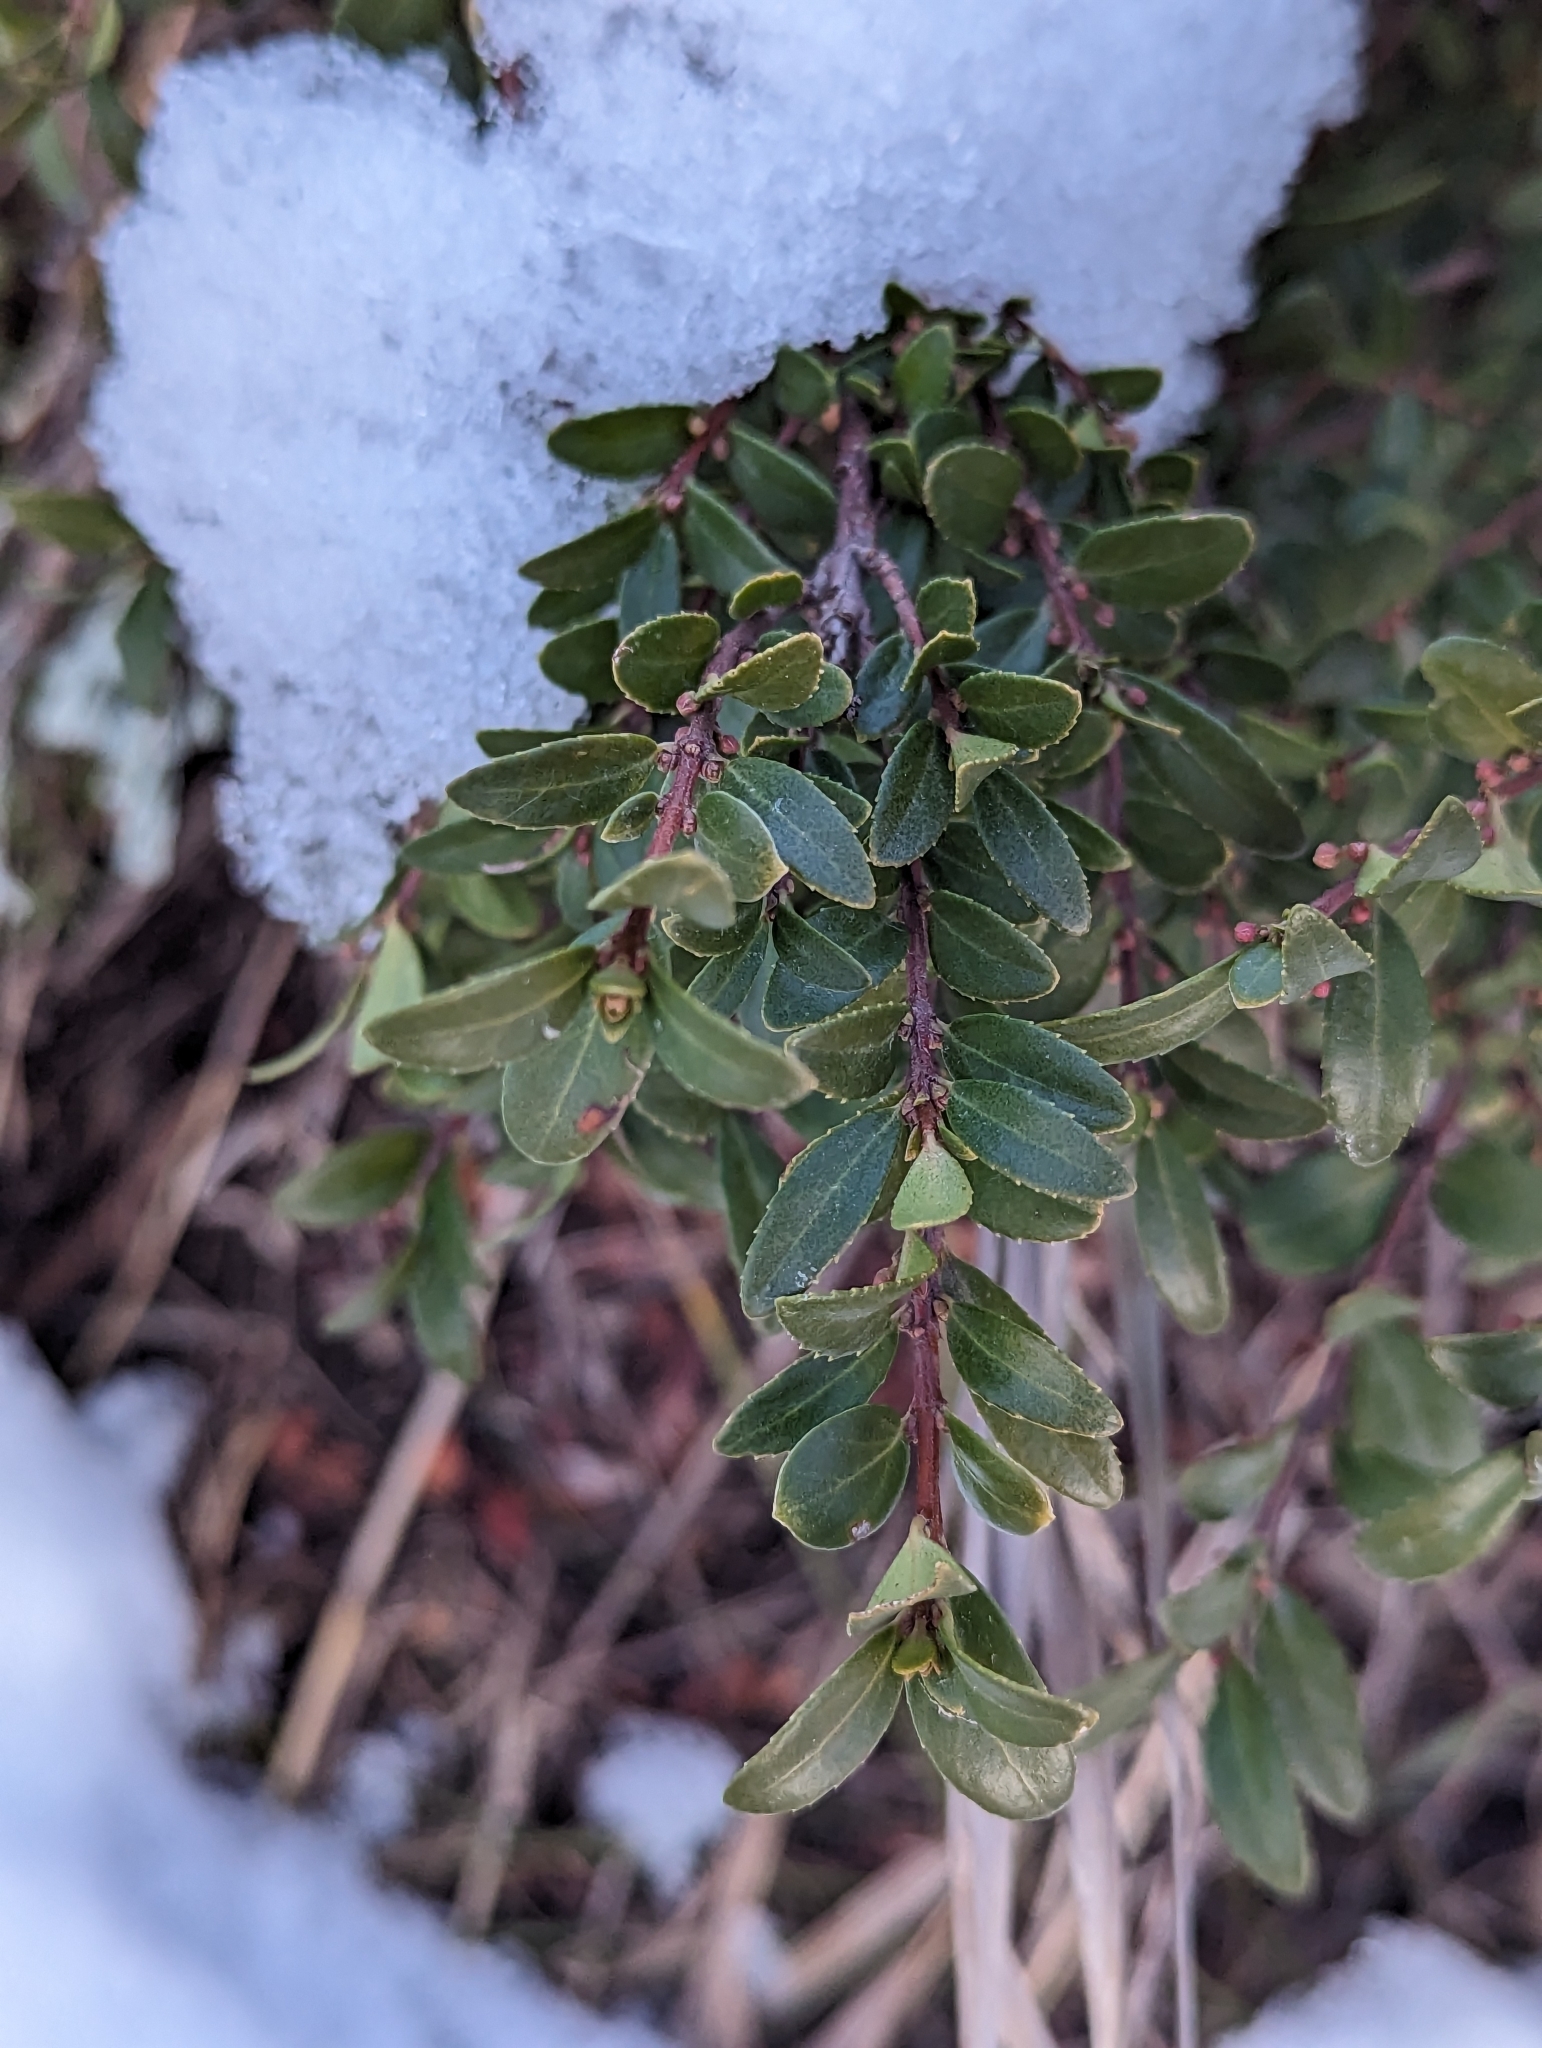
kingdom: Plantae
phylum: Tracheophyta
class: Magnoliopsida
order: Celastrales
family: Celastraceae
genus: Paxistima
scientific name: Paxistima myrsinites
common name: Mountain-lover
